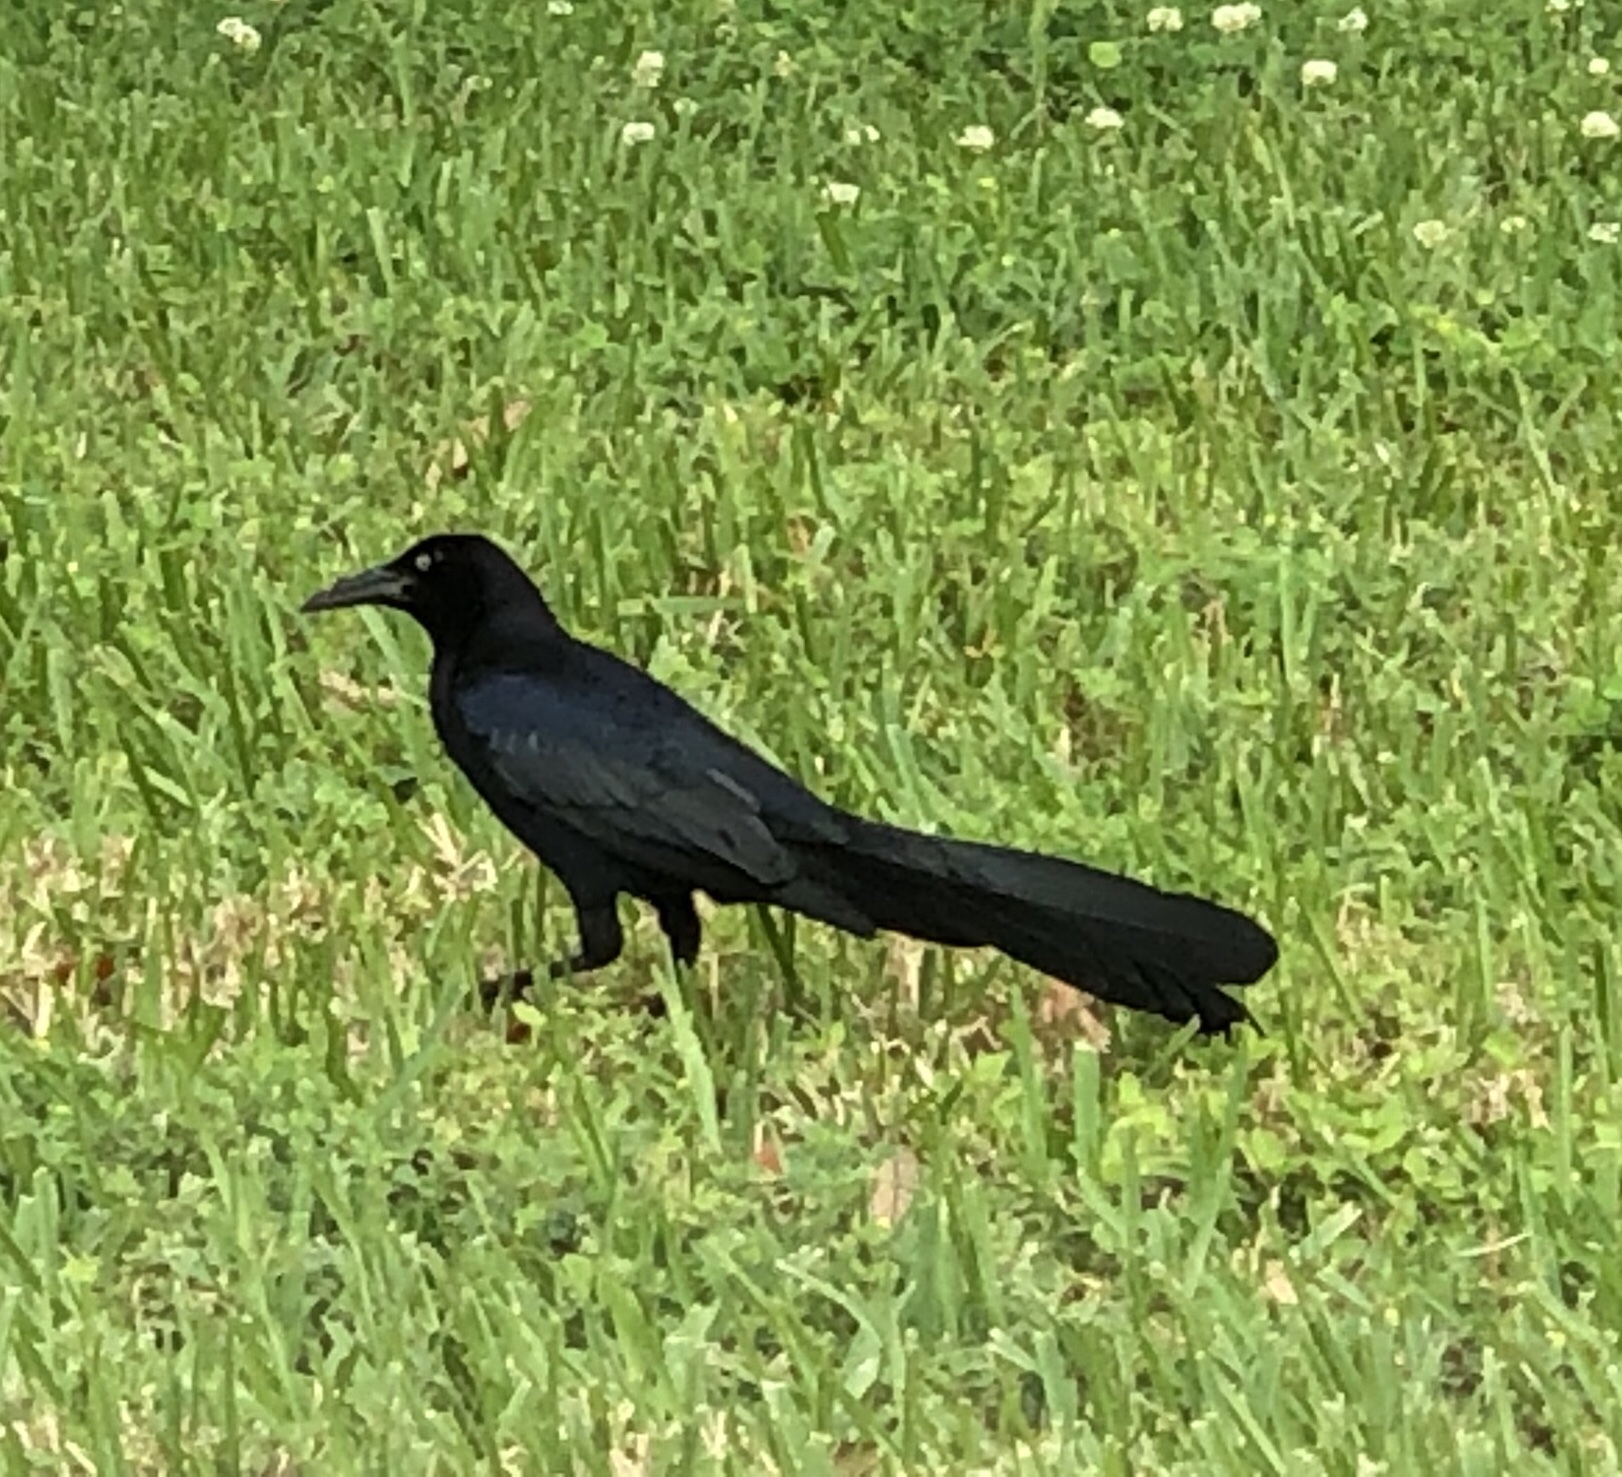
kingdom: Animalia
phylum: Chordata
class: Aves
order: Passeriformes
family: Icteridae
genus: Quiscalus
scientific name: Quiscalus mexicanus
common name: Great-tailed grackle
